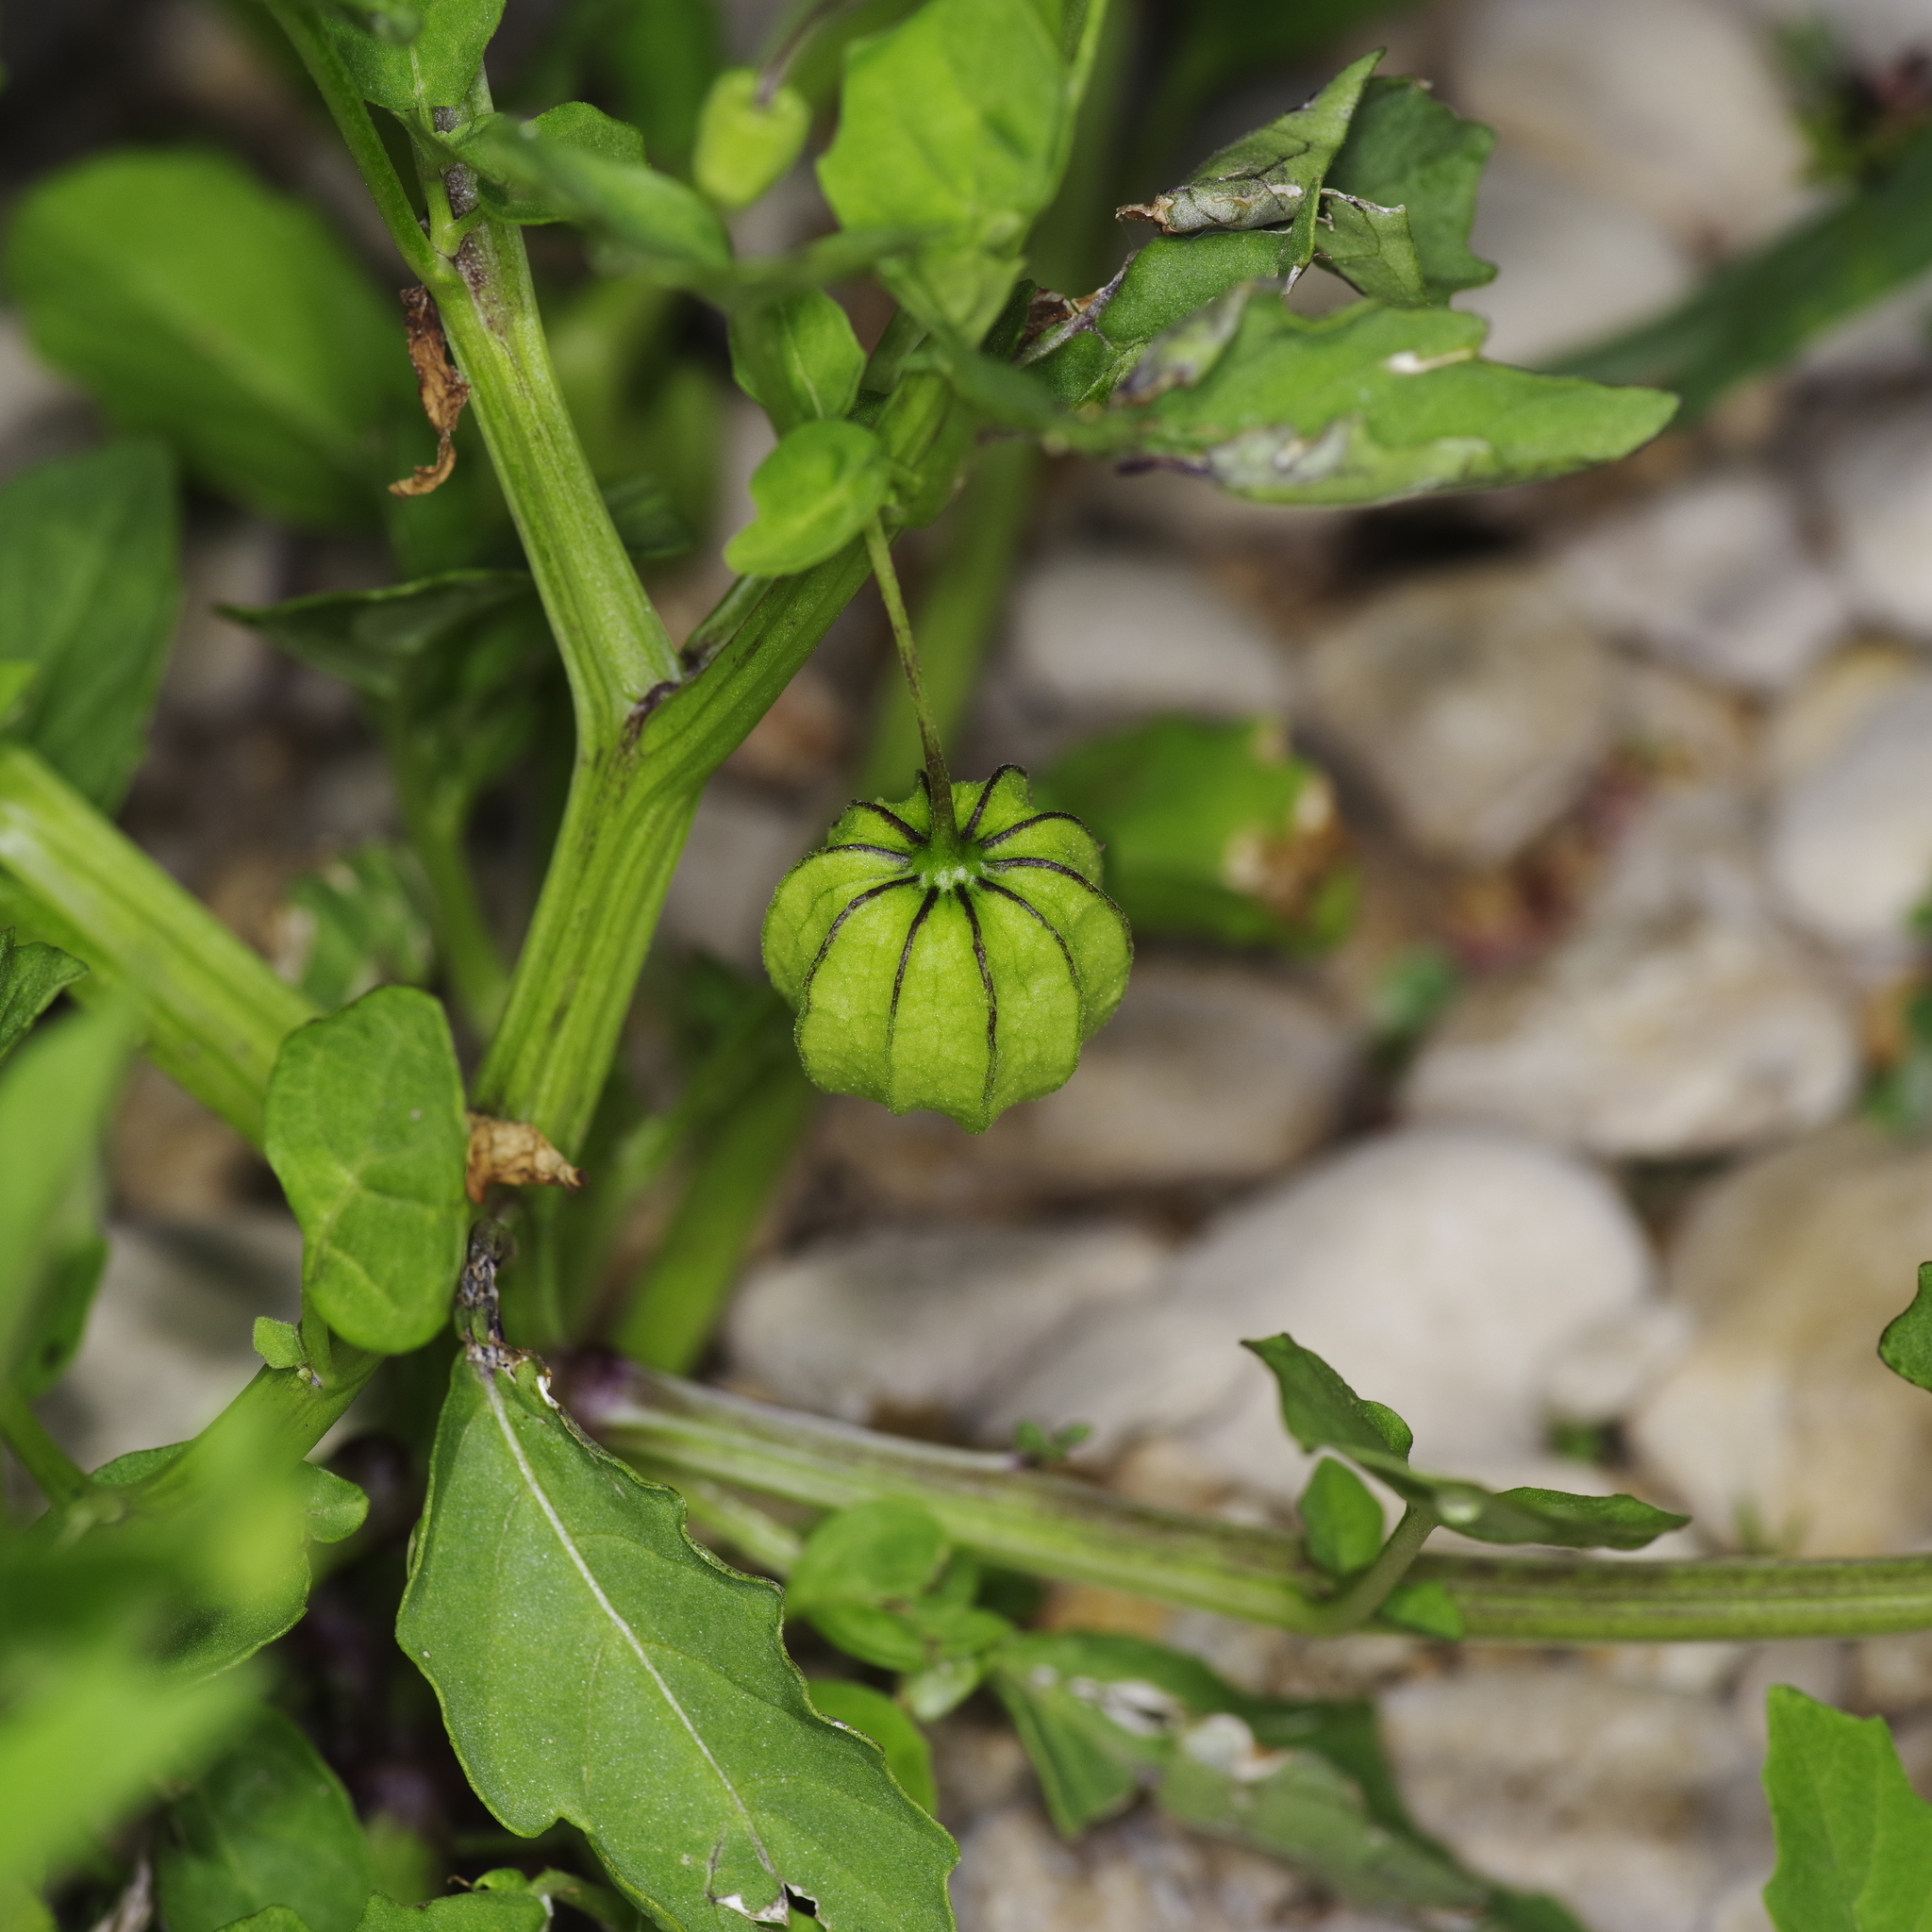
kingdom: Plantae
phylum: Tracheophyta
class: Magnoliopsida
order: Solanales
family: Solanaceae
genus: Physalis
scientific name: Physalis angulata
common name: Angular winter-cherry
